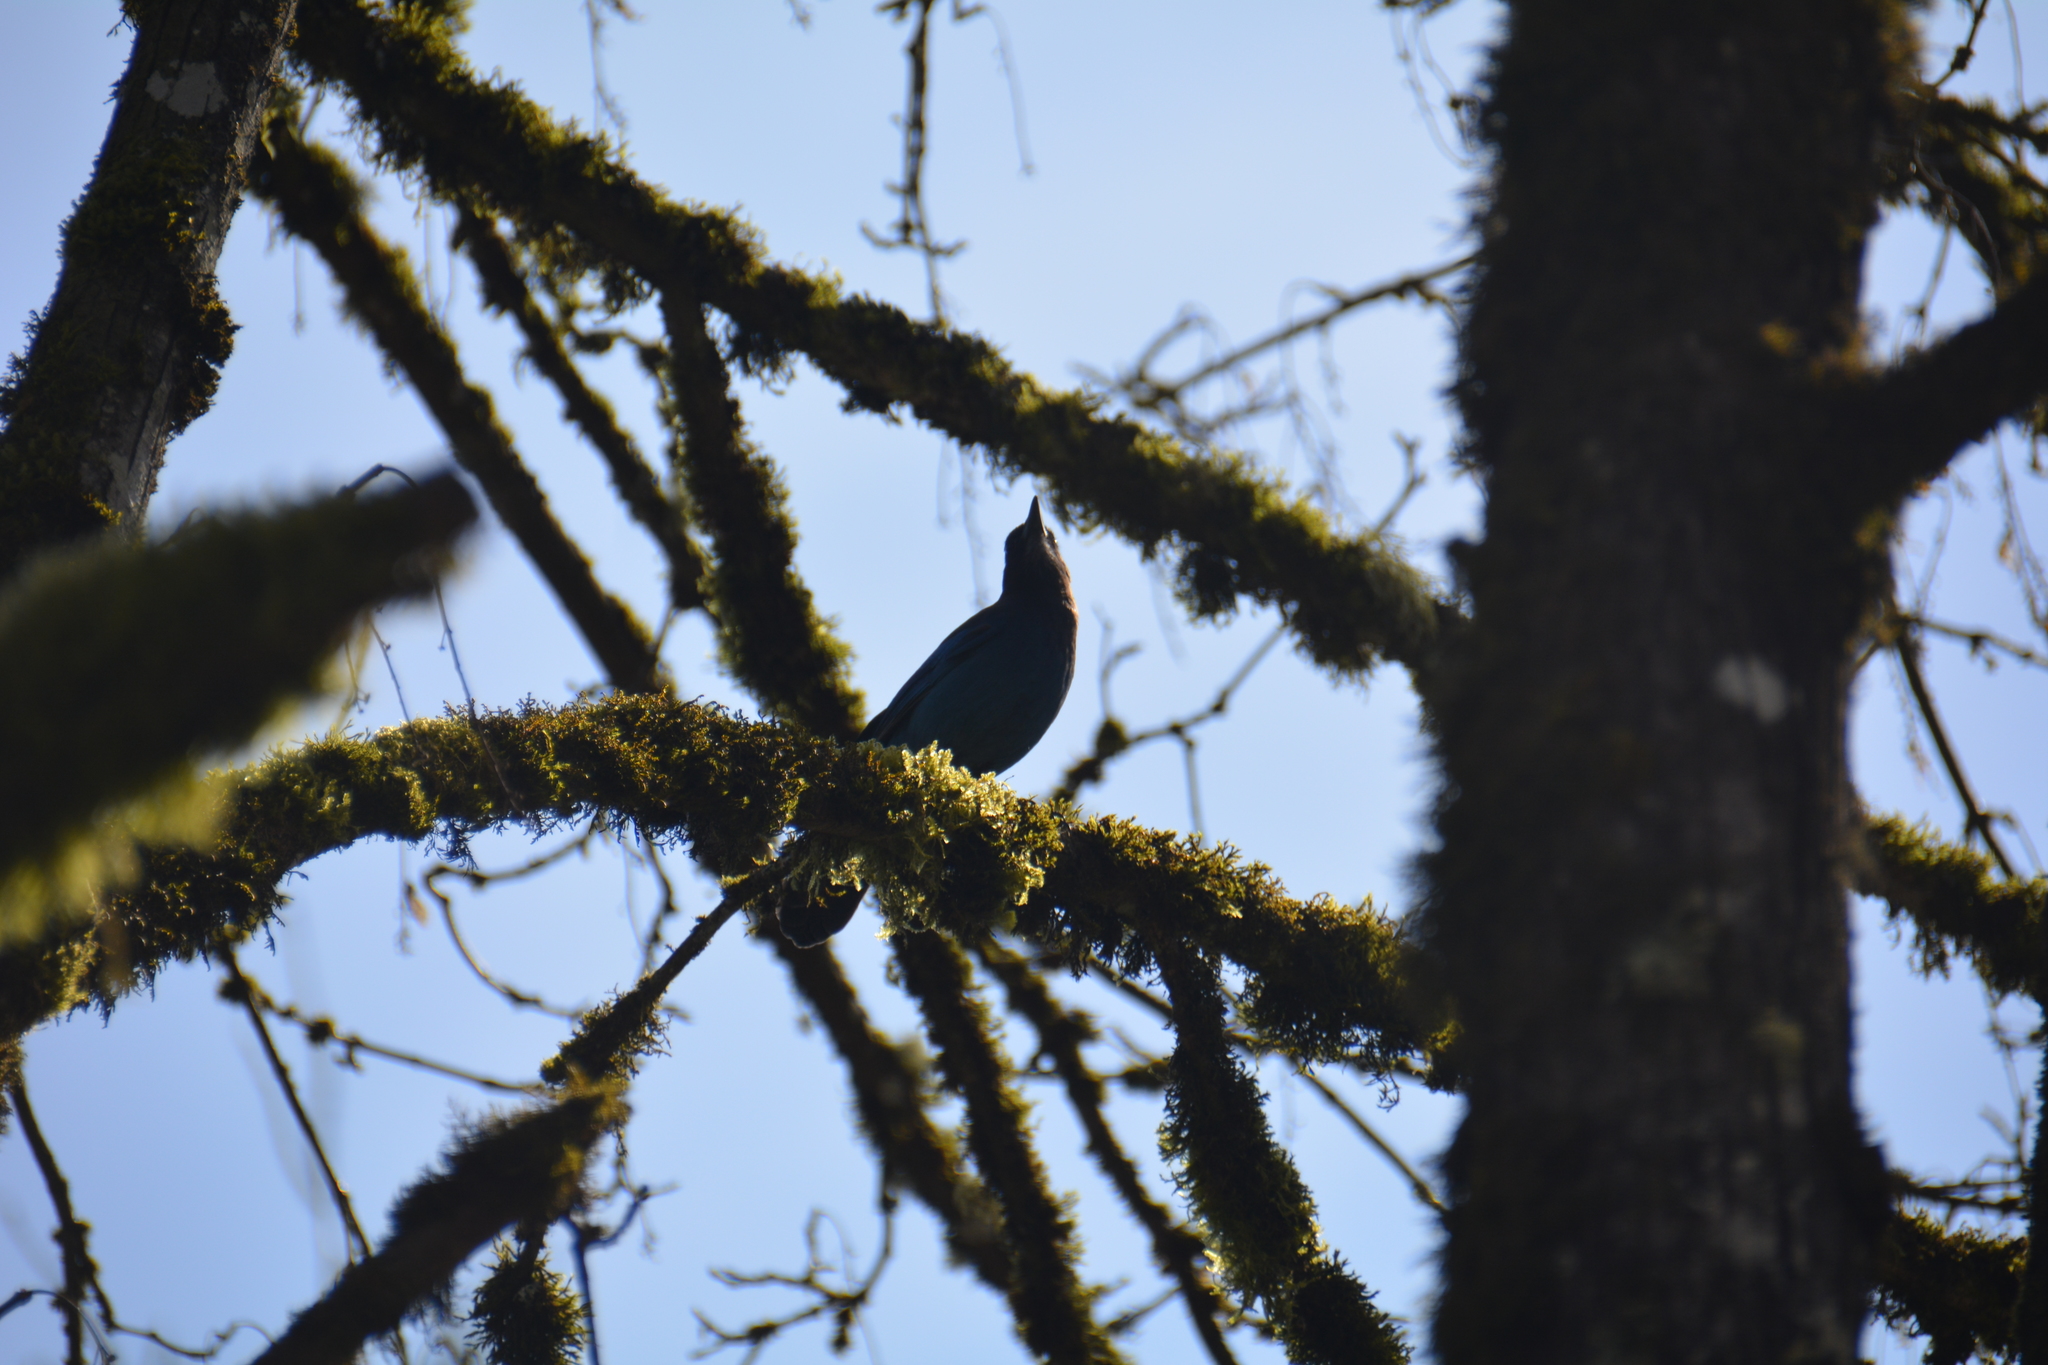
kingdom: Animalia
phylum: Chordata
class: Aves
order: Passeriformes
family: Corvidae
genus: Cyanocitta
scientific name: Cyanocitta stelleri
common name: Steller's jay
